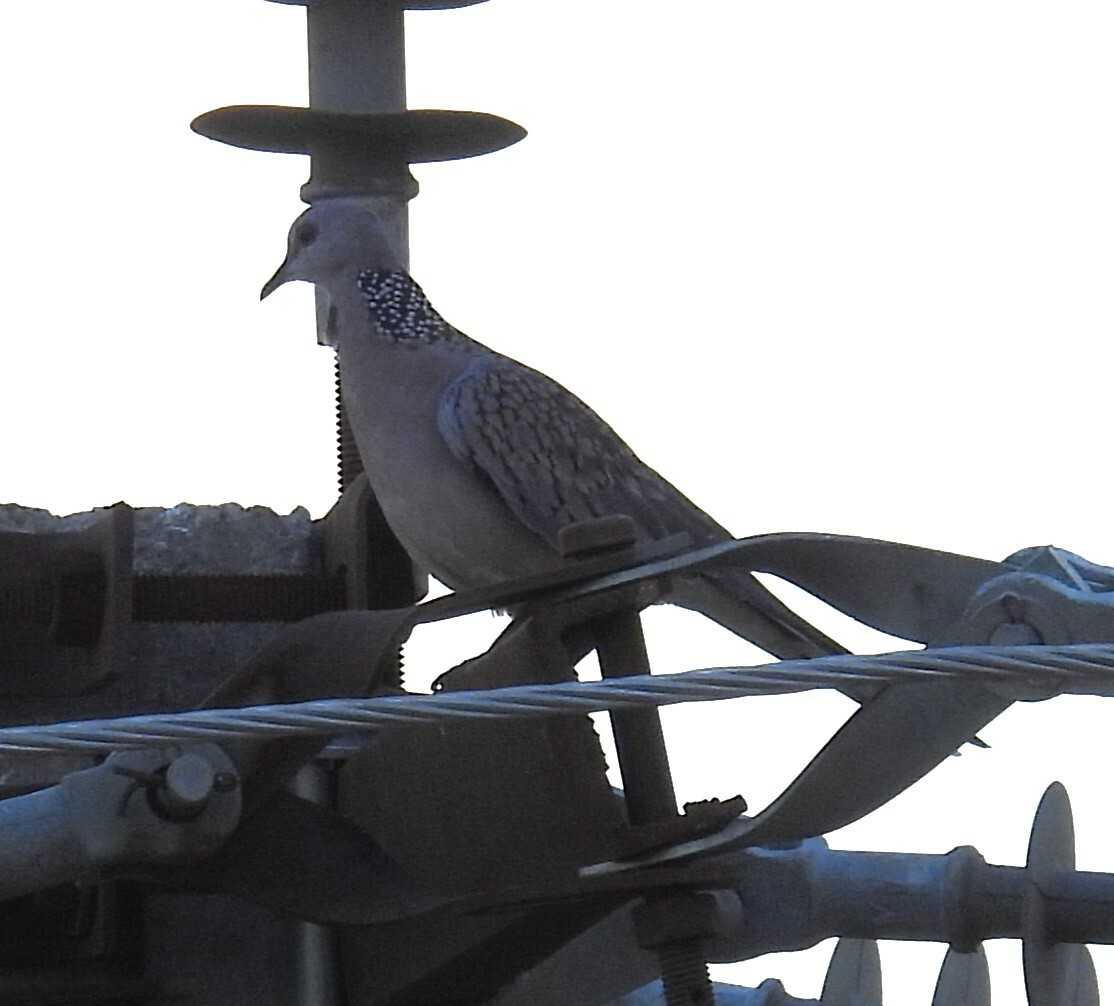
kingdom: Animalia
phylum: Chordata
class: Aves
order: Columbiformes
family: Columbidae
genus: Spilopelia
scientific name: Spilopelia chinensis
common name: Spotted dove
